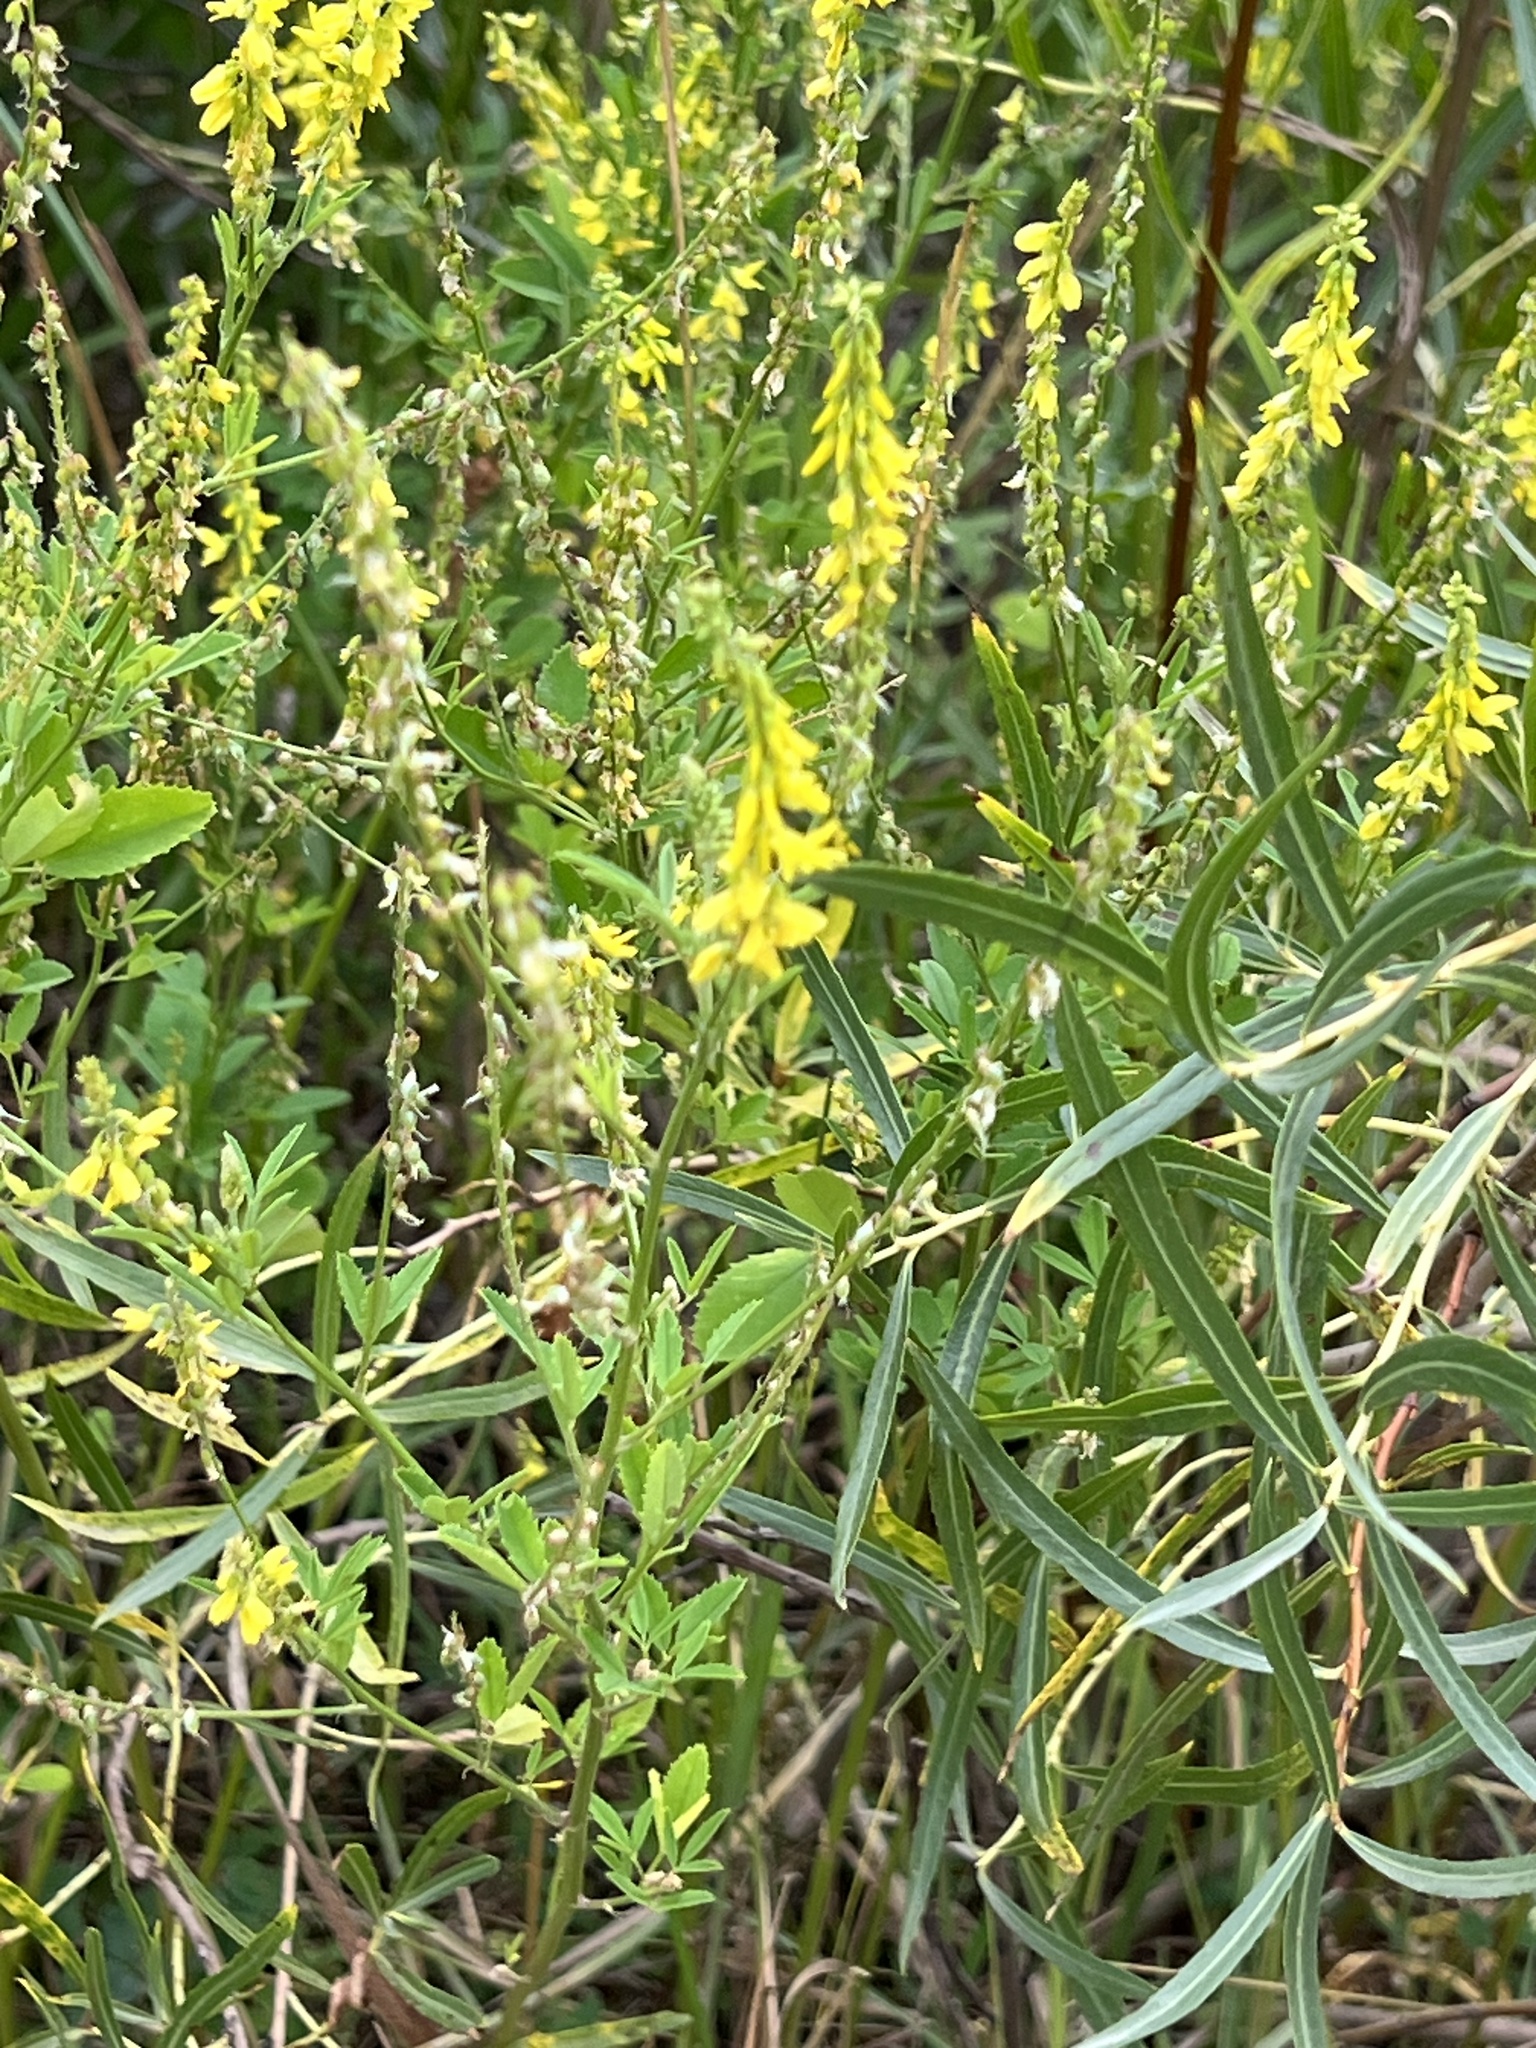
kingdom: Plantae
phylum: Tracheophyta
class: Magnoliopsida
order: Fabales
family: Fabaceae
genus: Melilotus
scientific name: Melilotus officinalis
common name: Sweetclover
